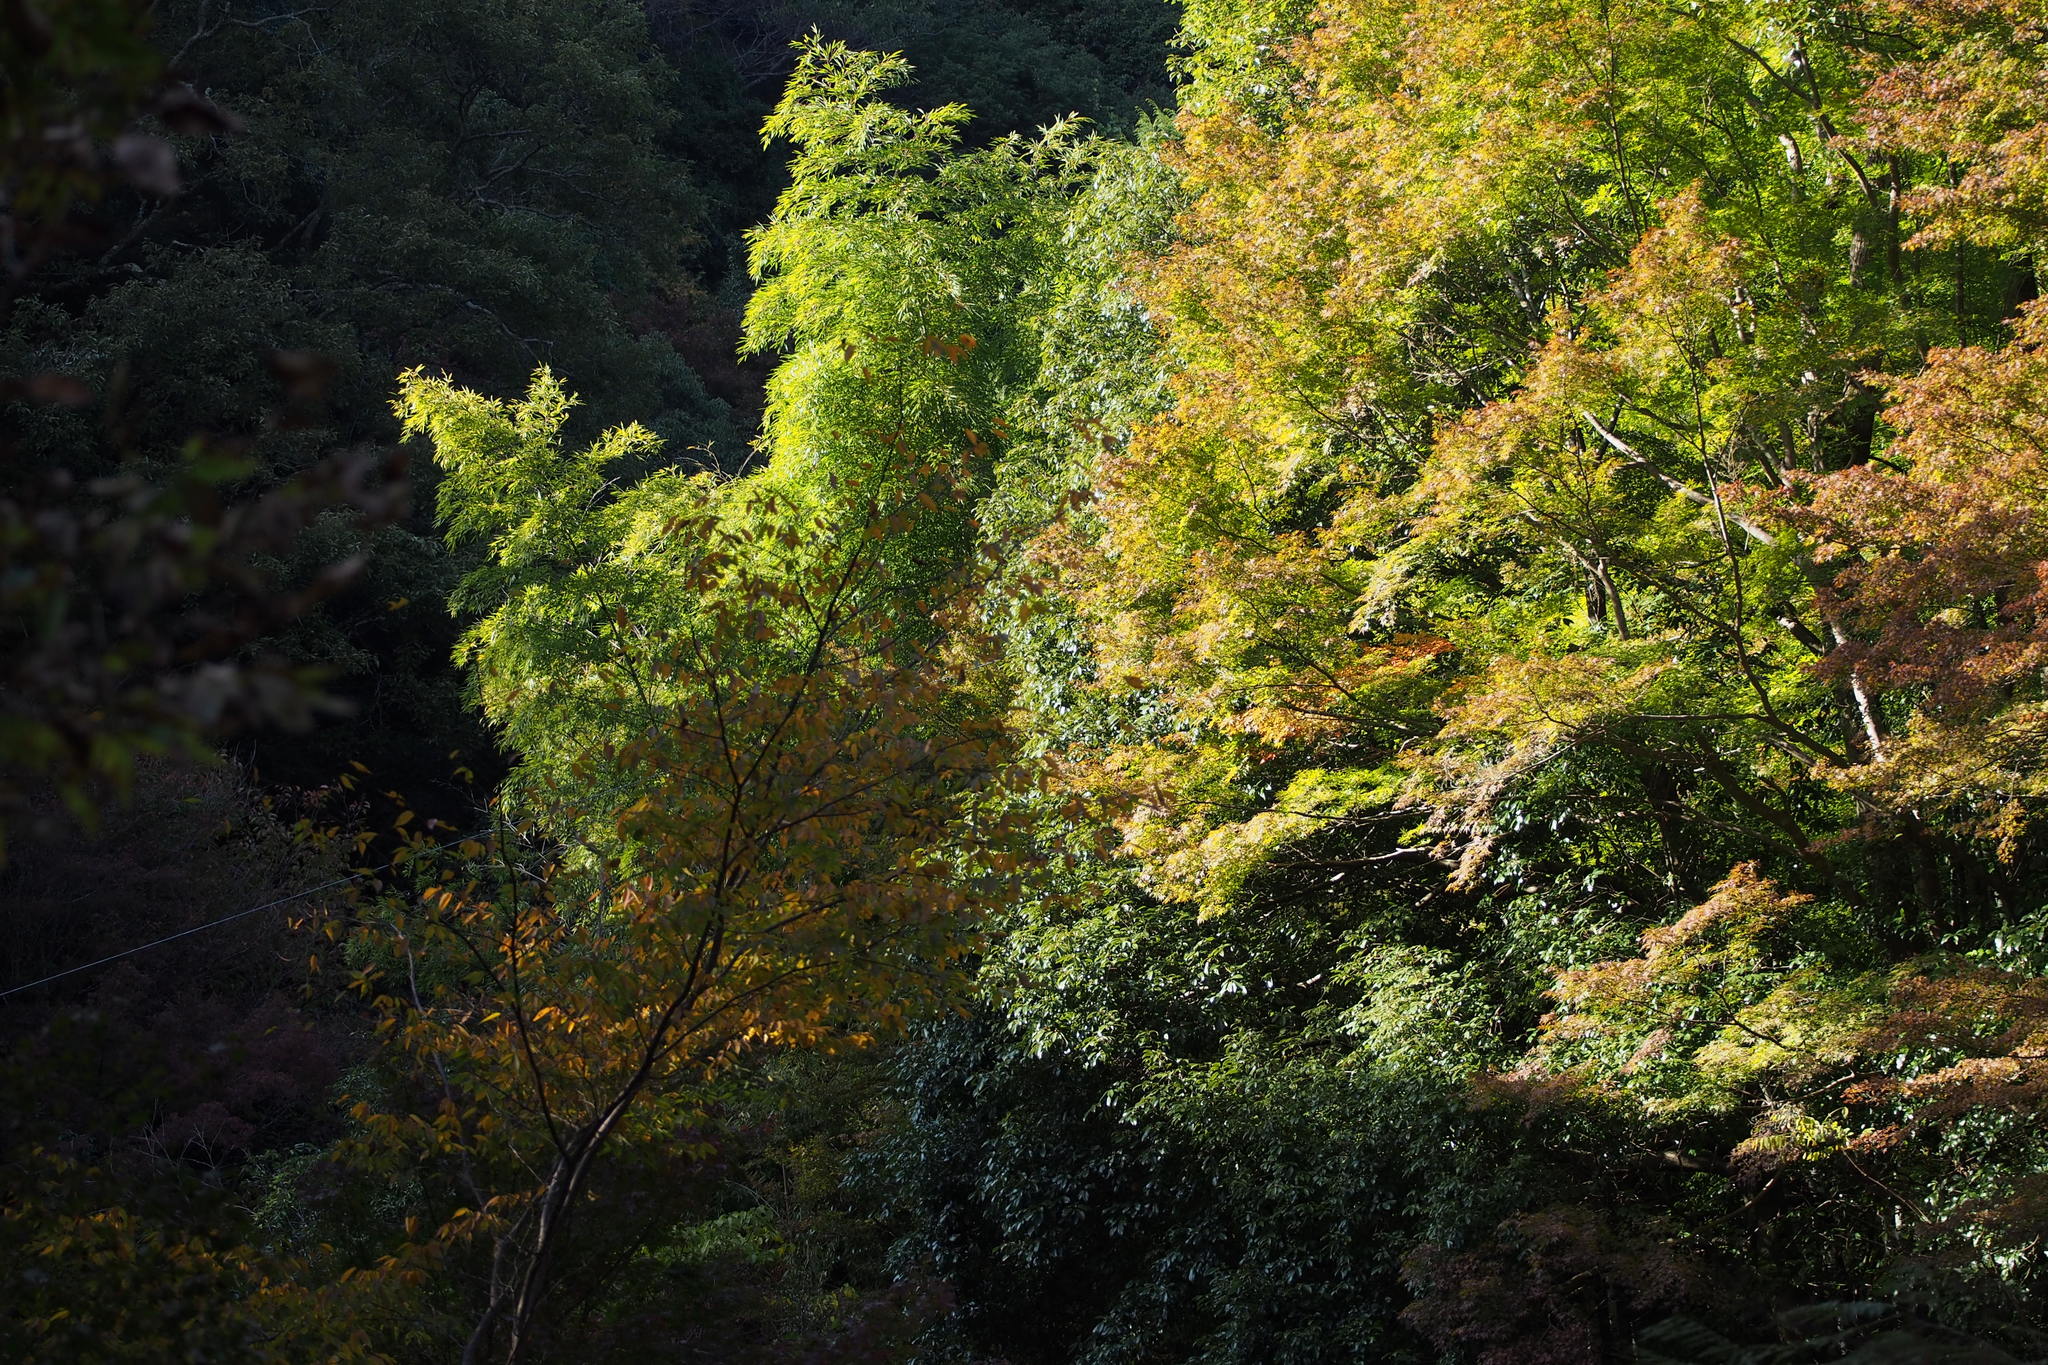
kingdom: Plantae
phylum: Tracheophyta
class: Magnoliopsida
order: Sapindales
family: Sapindaceae
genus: Acer
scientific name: Acer palmatum
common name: Japanese maple
